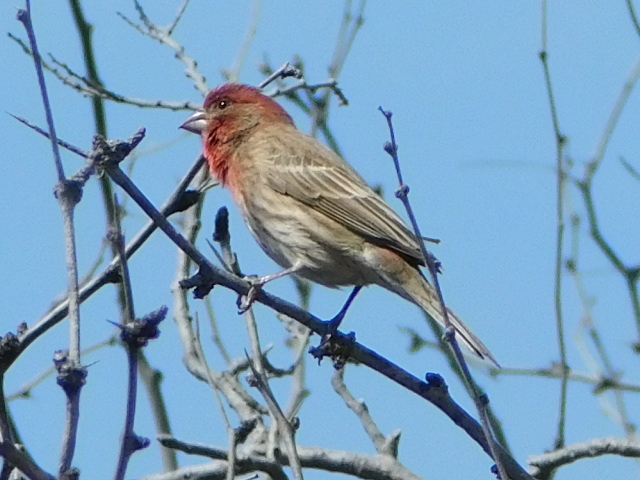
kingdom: Animalia
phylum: Chordata
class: Aves
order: Passeriformes
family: Fringillidae
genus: Haemorhous
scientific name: Haemorhous mexicanus
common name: House finch
